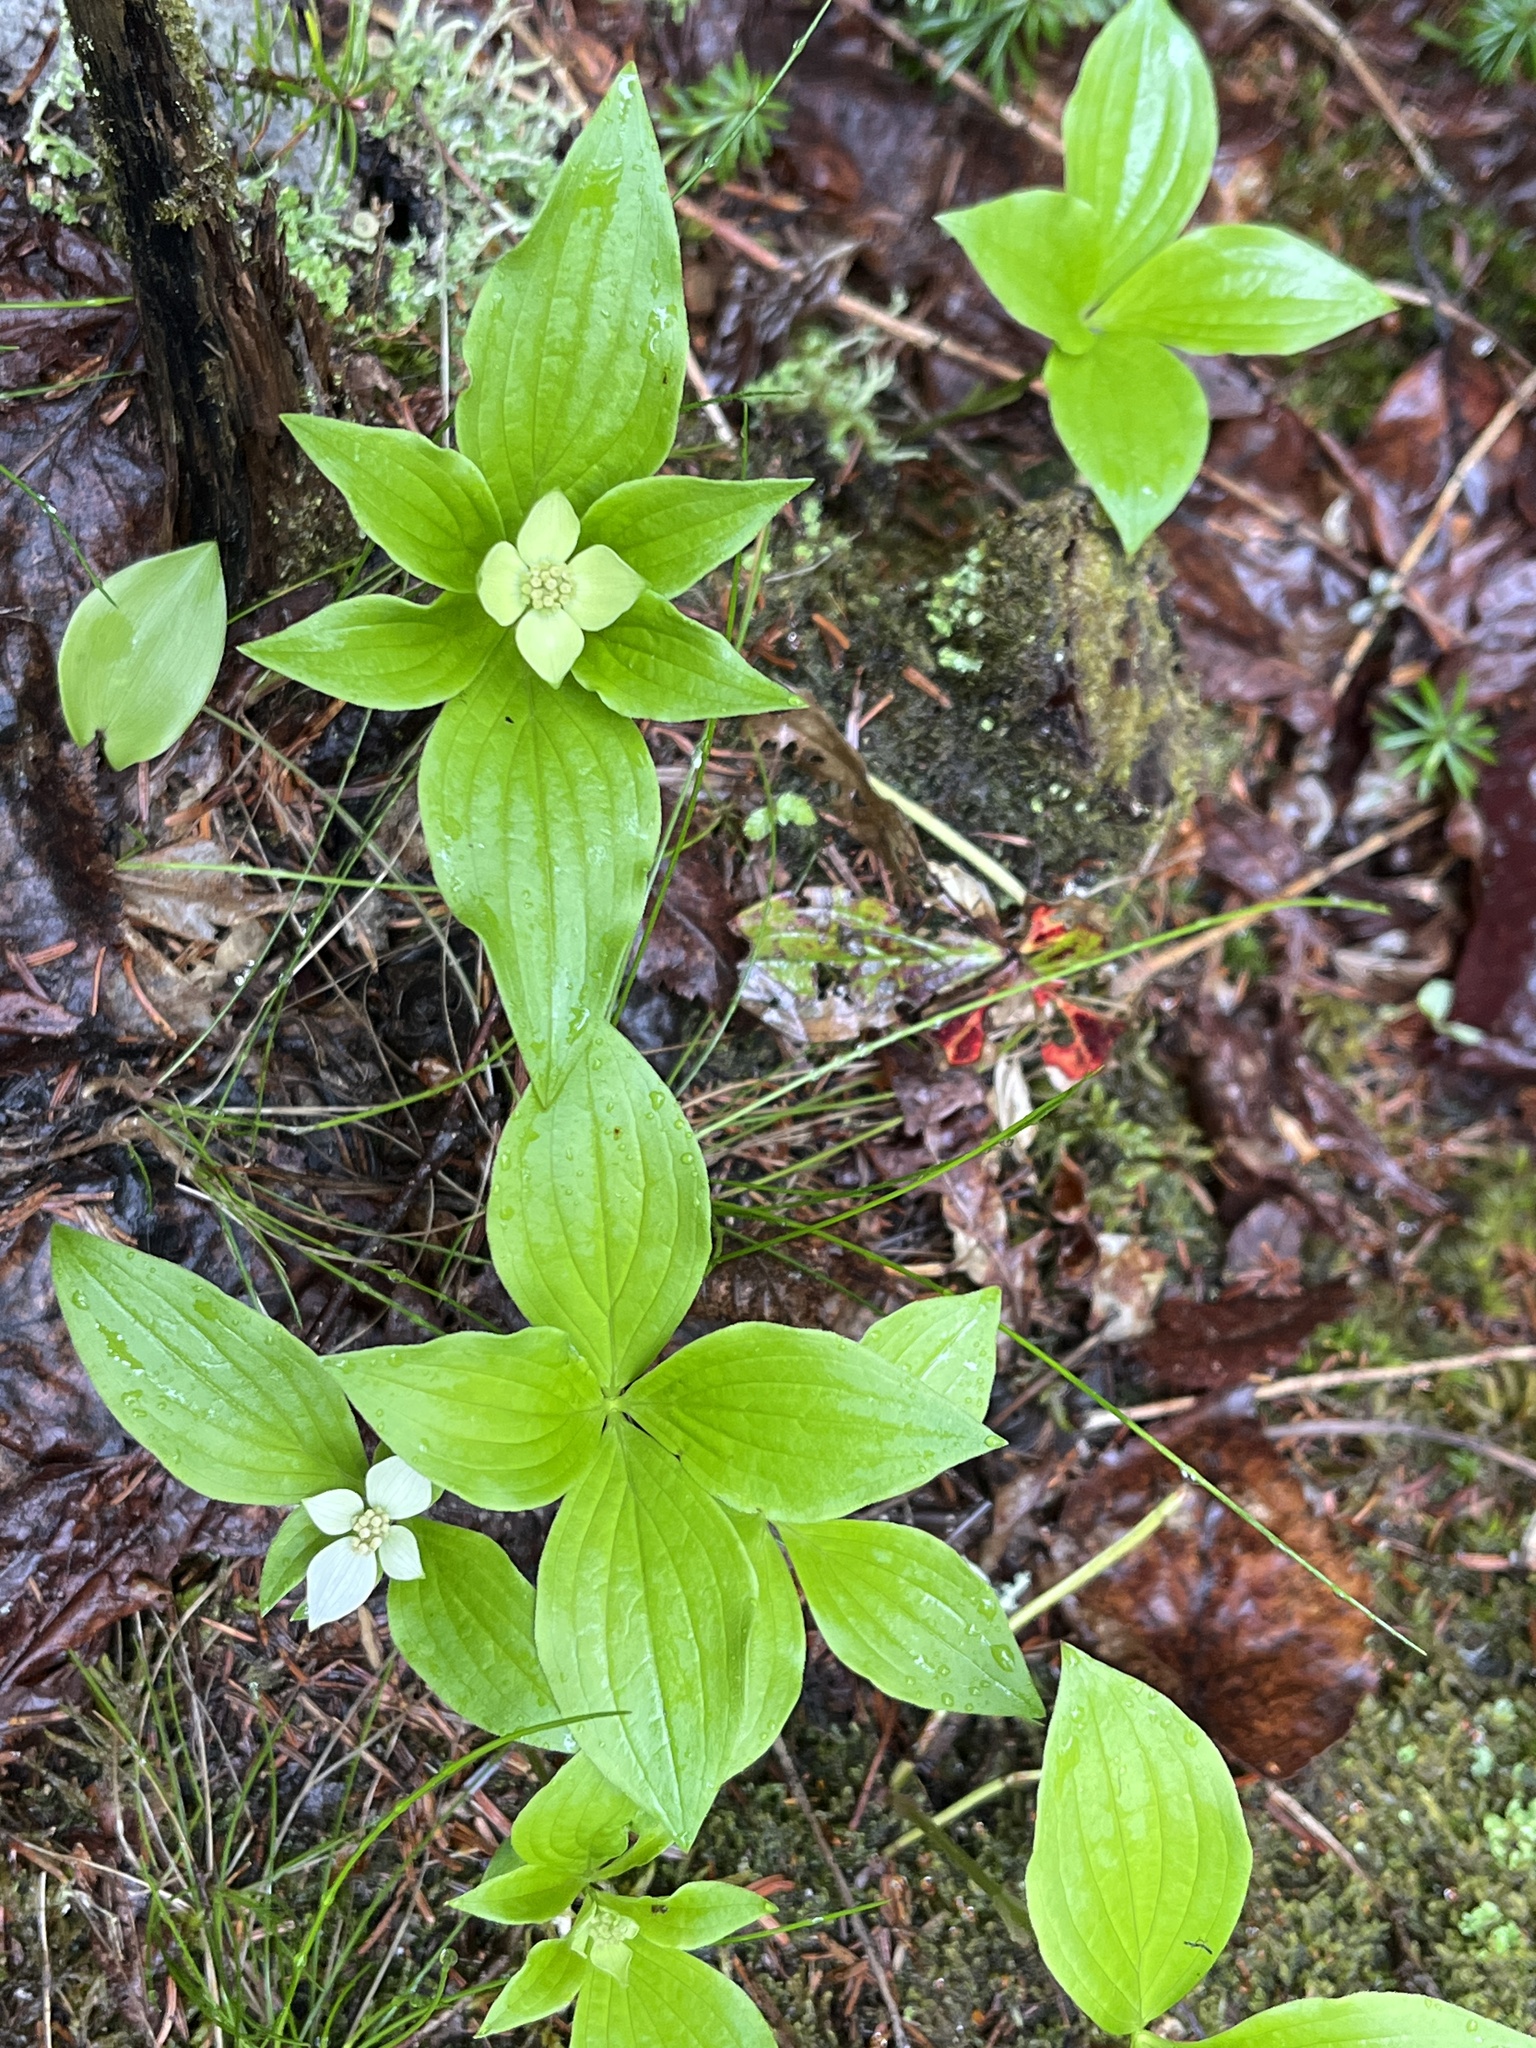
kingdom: Plantae
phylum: Tracheophyta
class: Magnoliopsida
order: Cornales
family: Cornaceae
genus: Cornus
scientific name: Cornus canadensis
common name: Creeping dogwood
